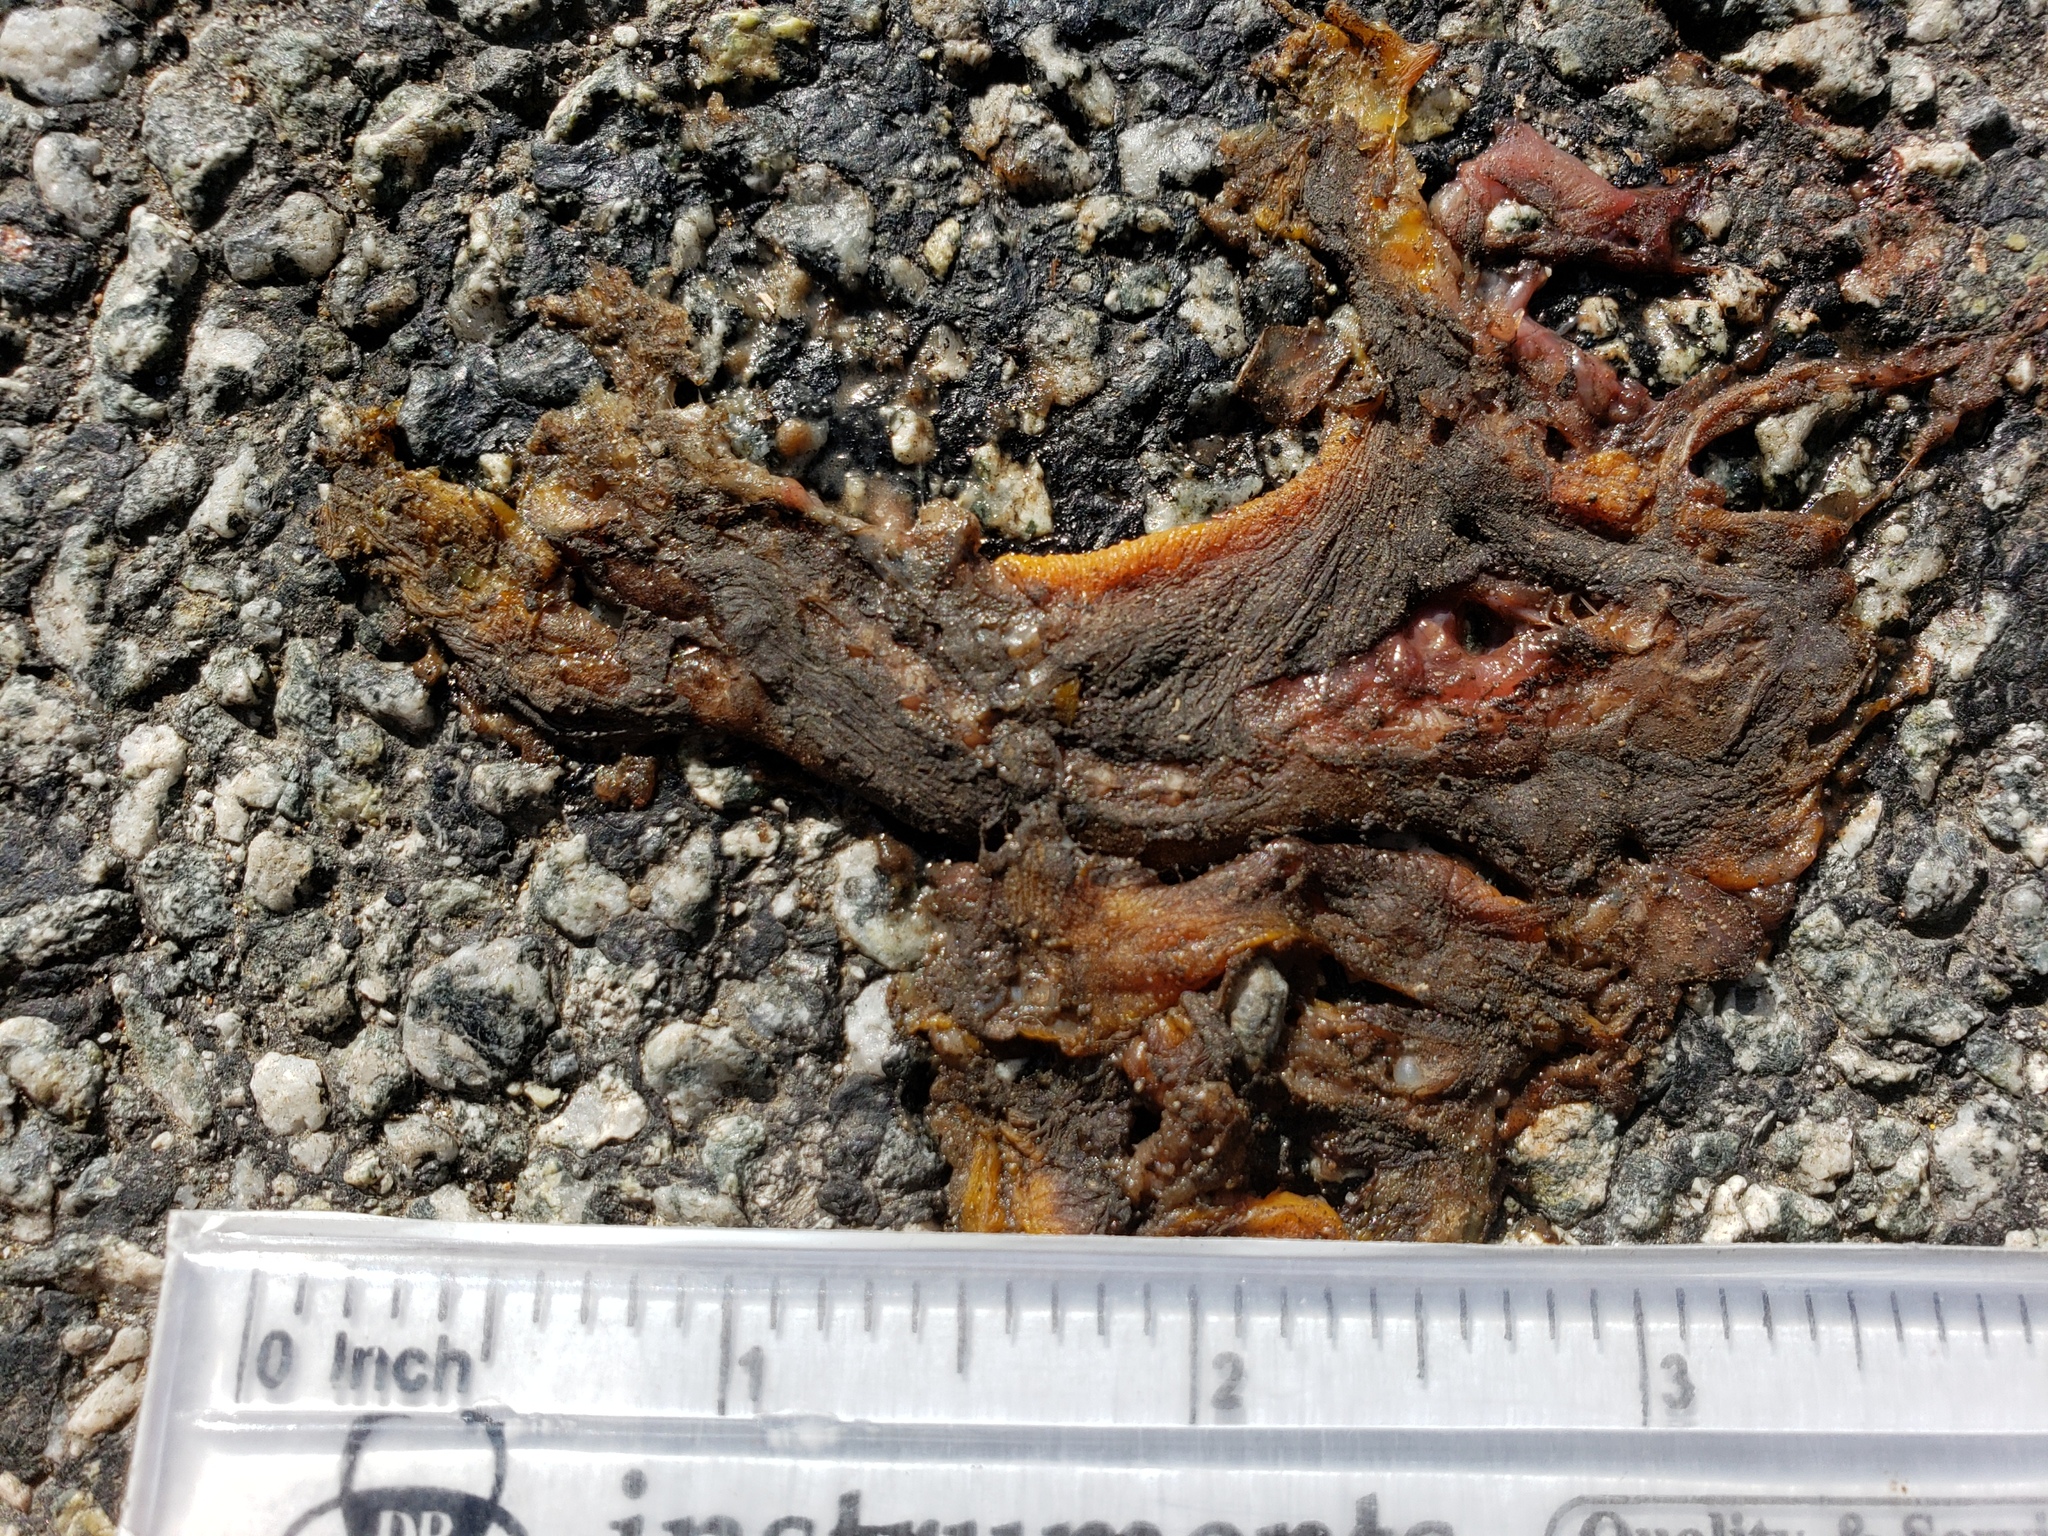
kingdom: Animalia
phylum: Chordata
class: Amphibia
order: Caudata
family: Salamandridae
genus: Taricha
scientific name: Taricha
